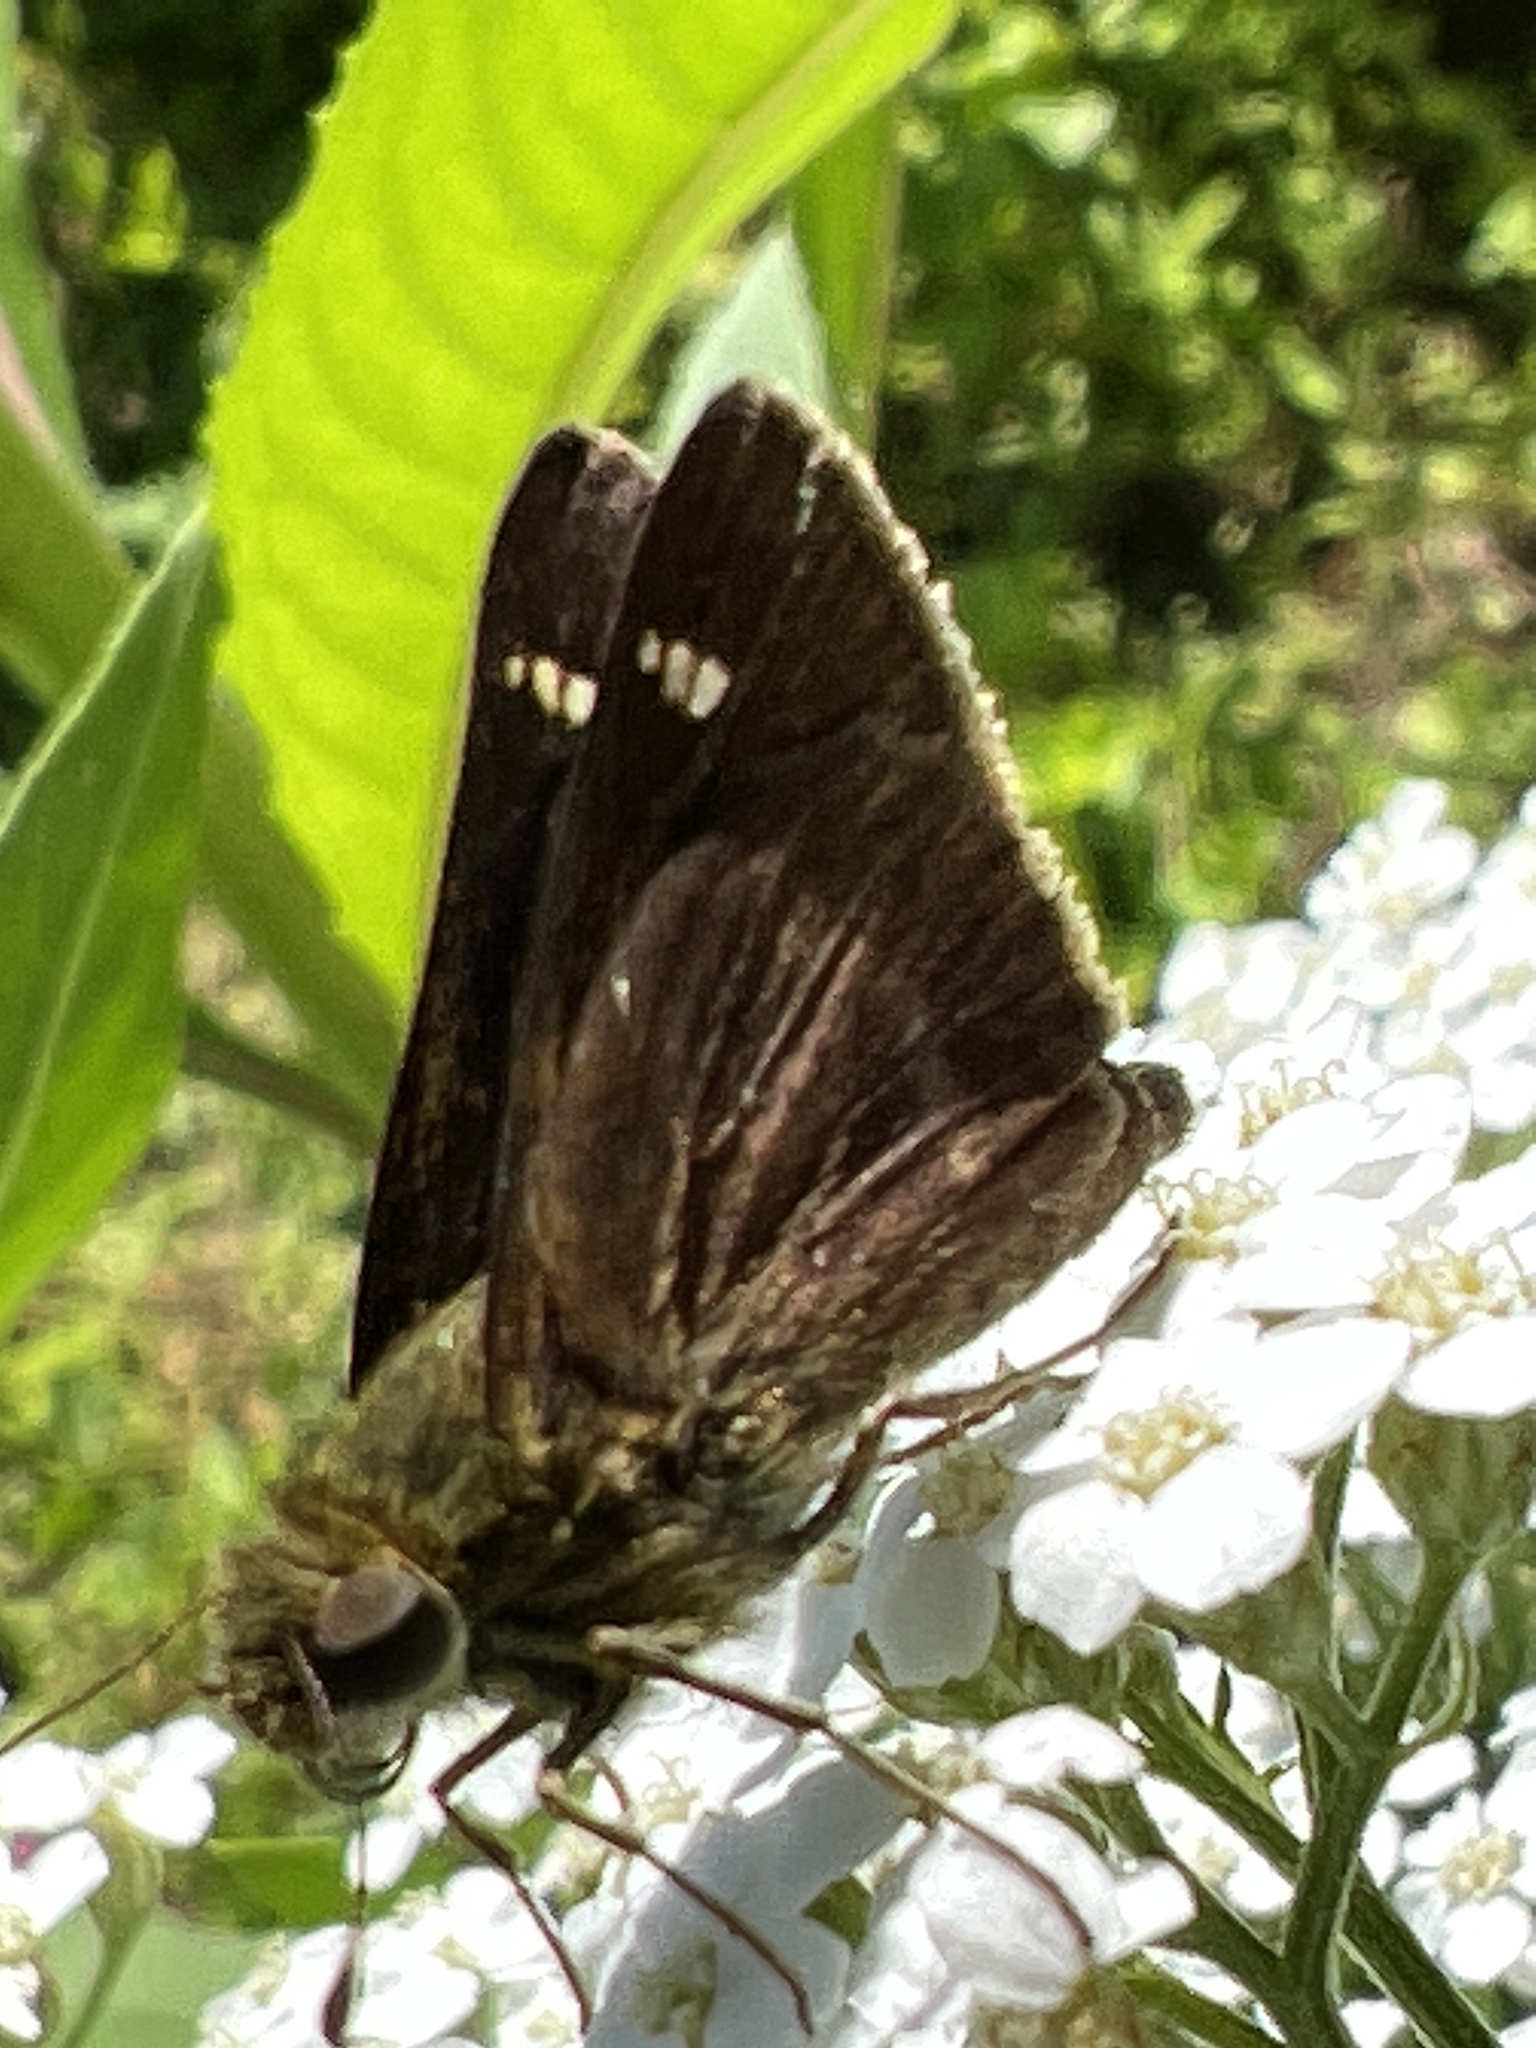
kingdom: Animalia
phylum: Arthropoda
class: Insecta
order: Lepidoptera
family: Hesperiidae
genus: Vernia
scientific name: Vernia verna
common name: Little glassywing
